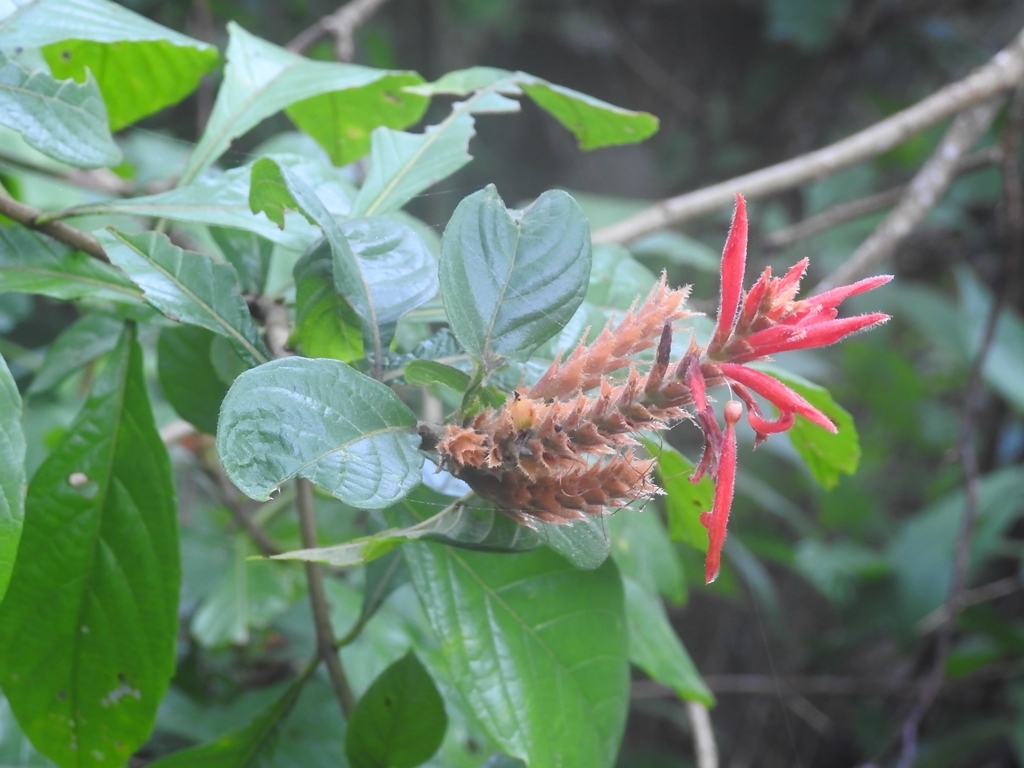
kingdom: Plantae
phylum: Tracheophyta
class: Magnoliopsida
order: Lamiales
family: Acanthaceae
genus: Aphelandra
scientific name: Aphelandra scabra
